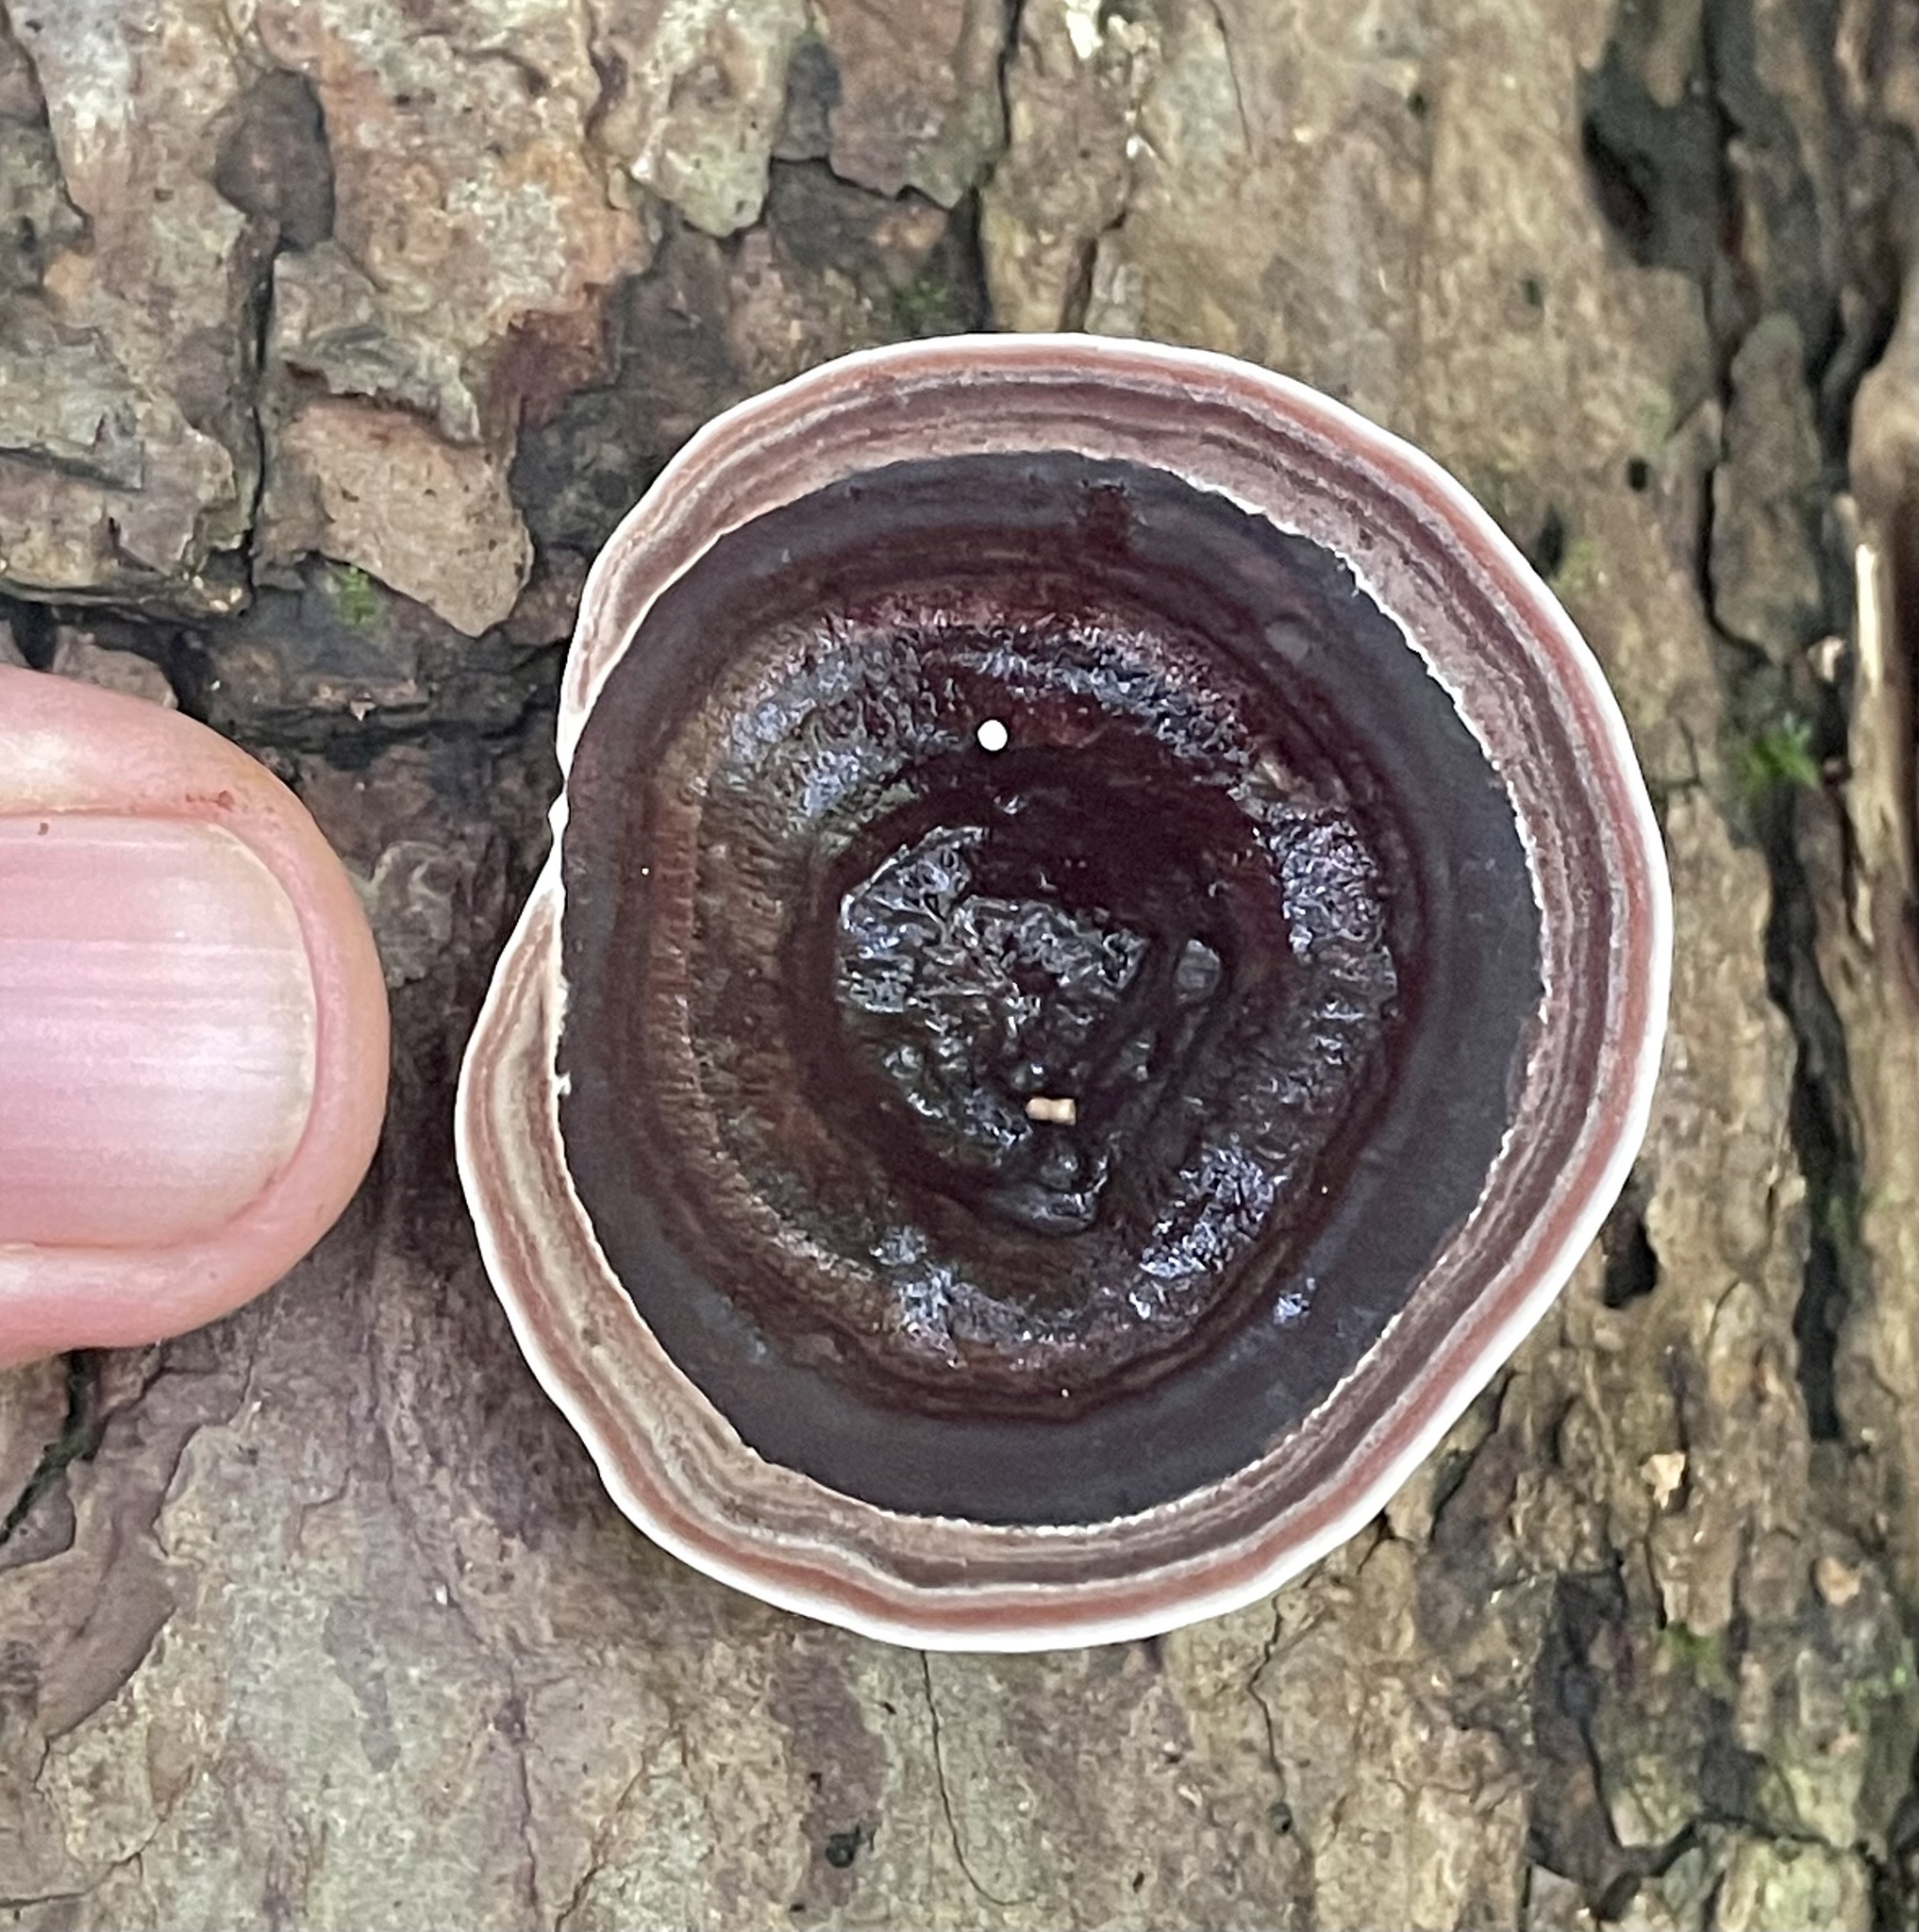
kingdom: Fungi
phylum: Basidiomycota
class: Agaricomycetes
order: Polyporales
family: Steccherinaceae
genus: Nigroporus
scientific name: Nigroporus vinosus
